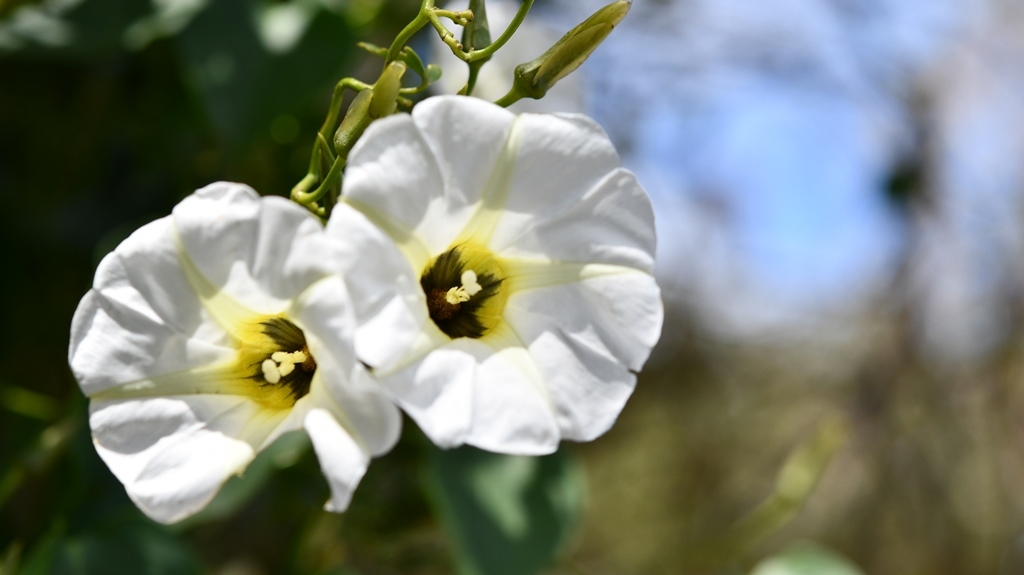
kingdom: Plantae
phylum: Tracheophyta
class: Magnoliopsida
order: Solanales
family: Convolvulaceae
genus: Ipomoea
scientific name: Ipomoea corymbosa
